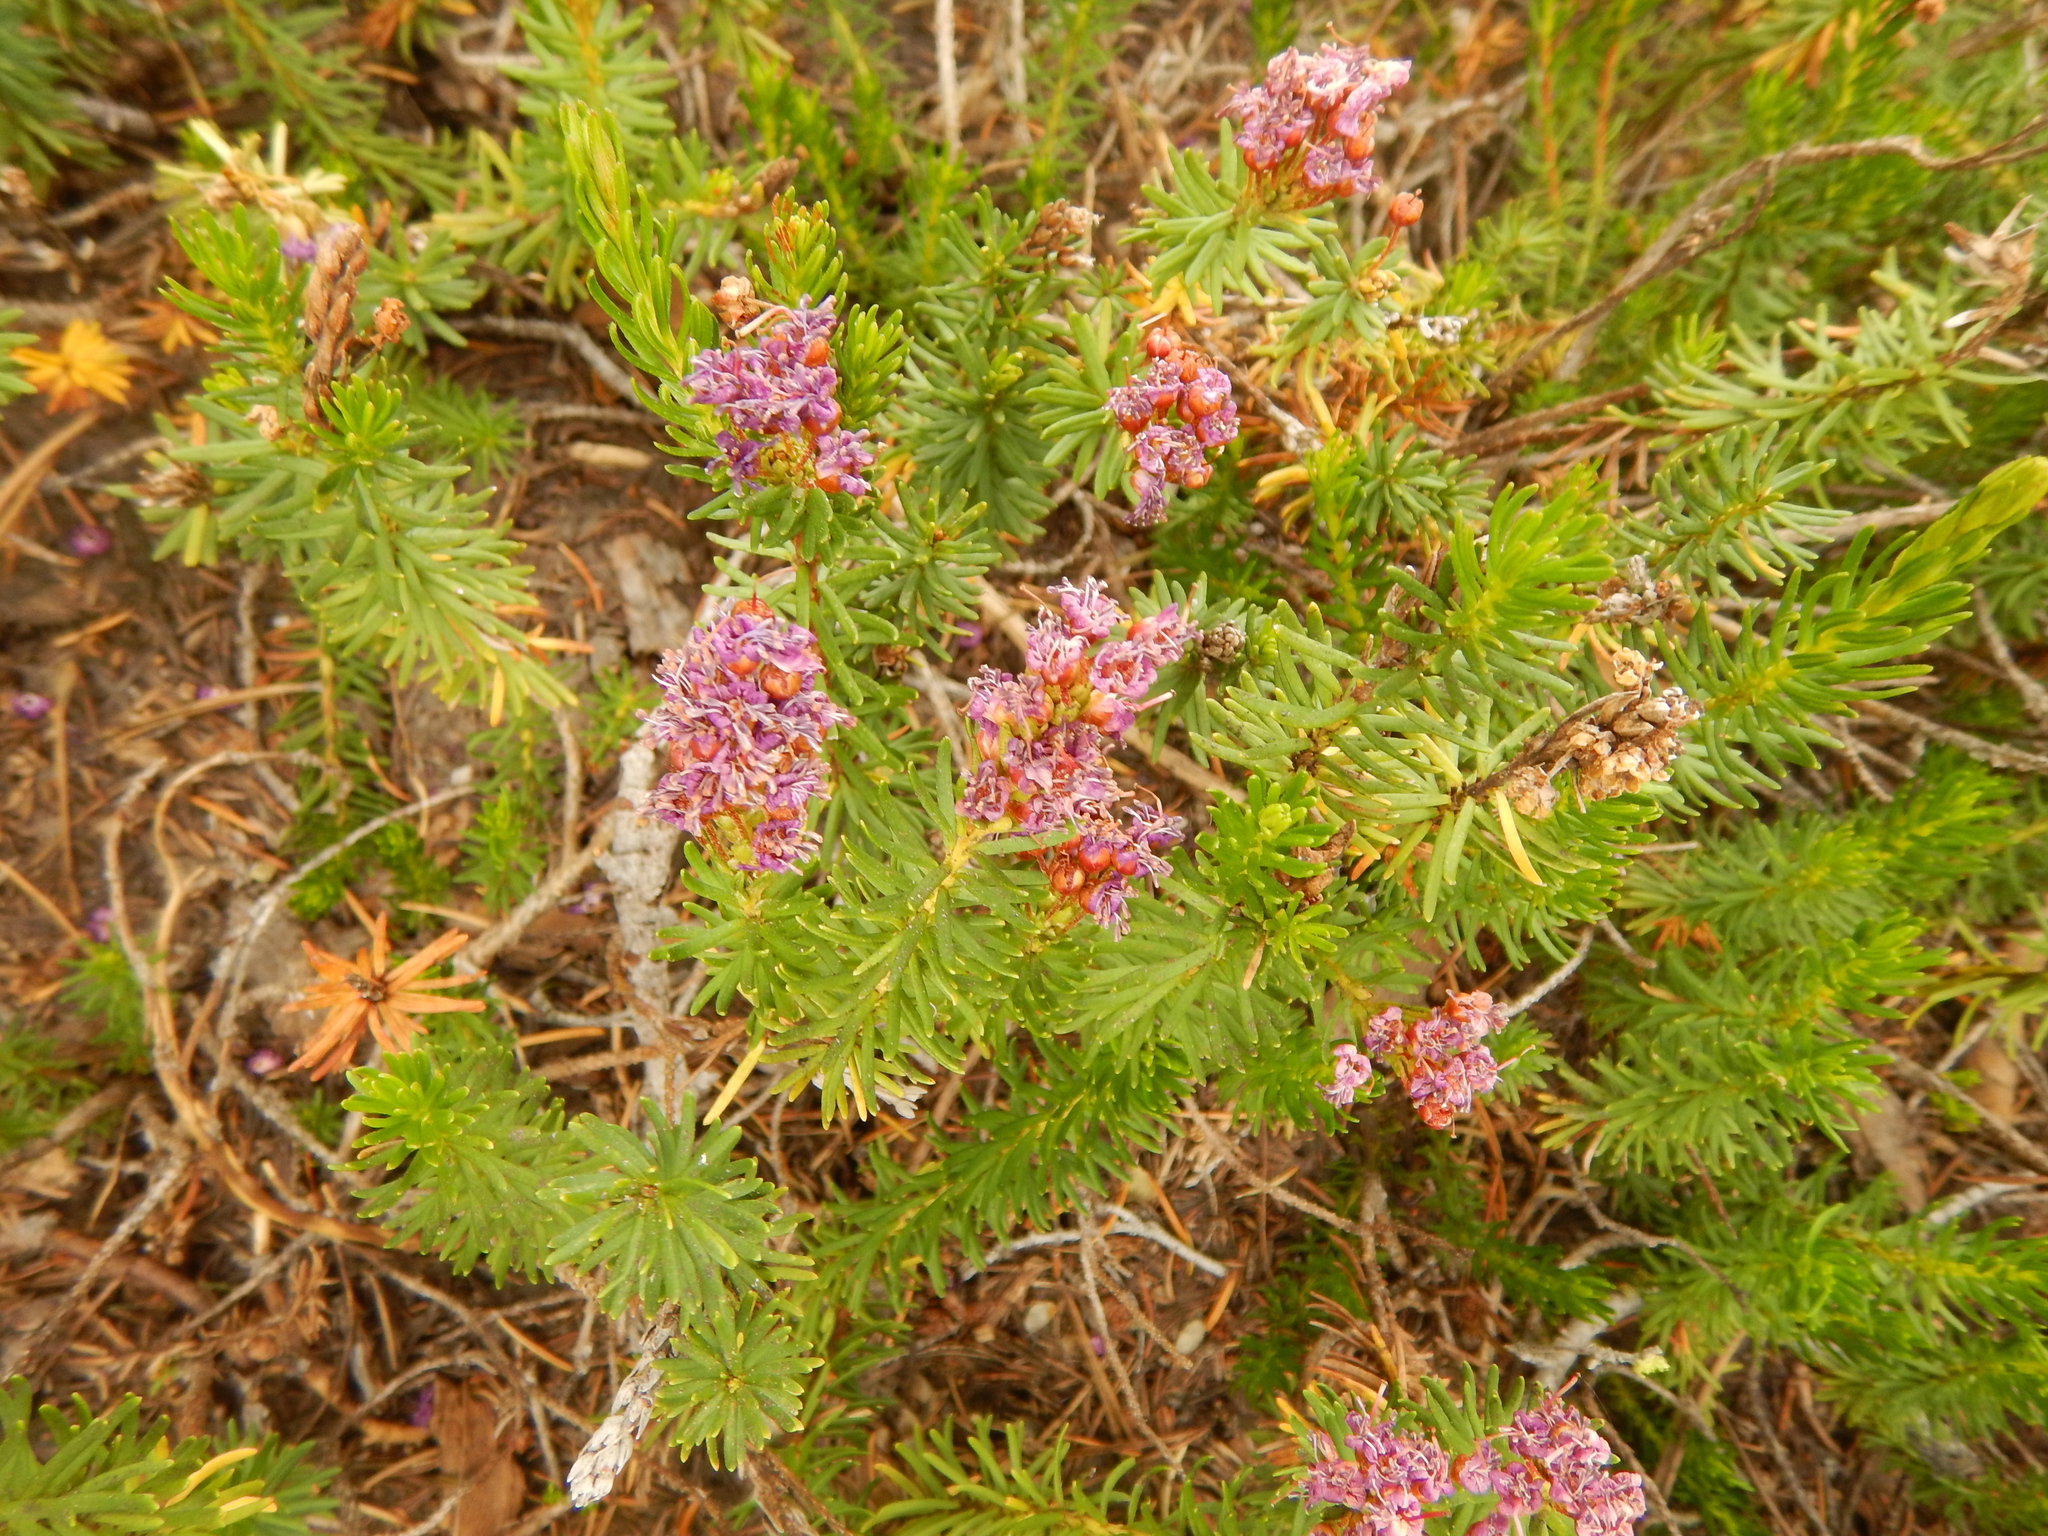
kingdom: Plantae
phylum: Tracheophyta
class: Magnoliopsida
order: Ericales
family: Ericaceae
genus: Phyllodoce
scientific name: Phyllodoce breweri
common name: Brewer's mountain-heather
